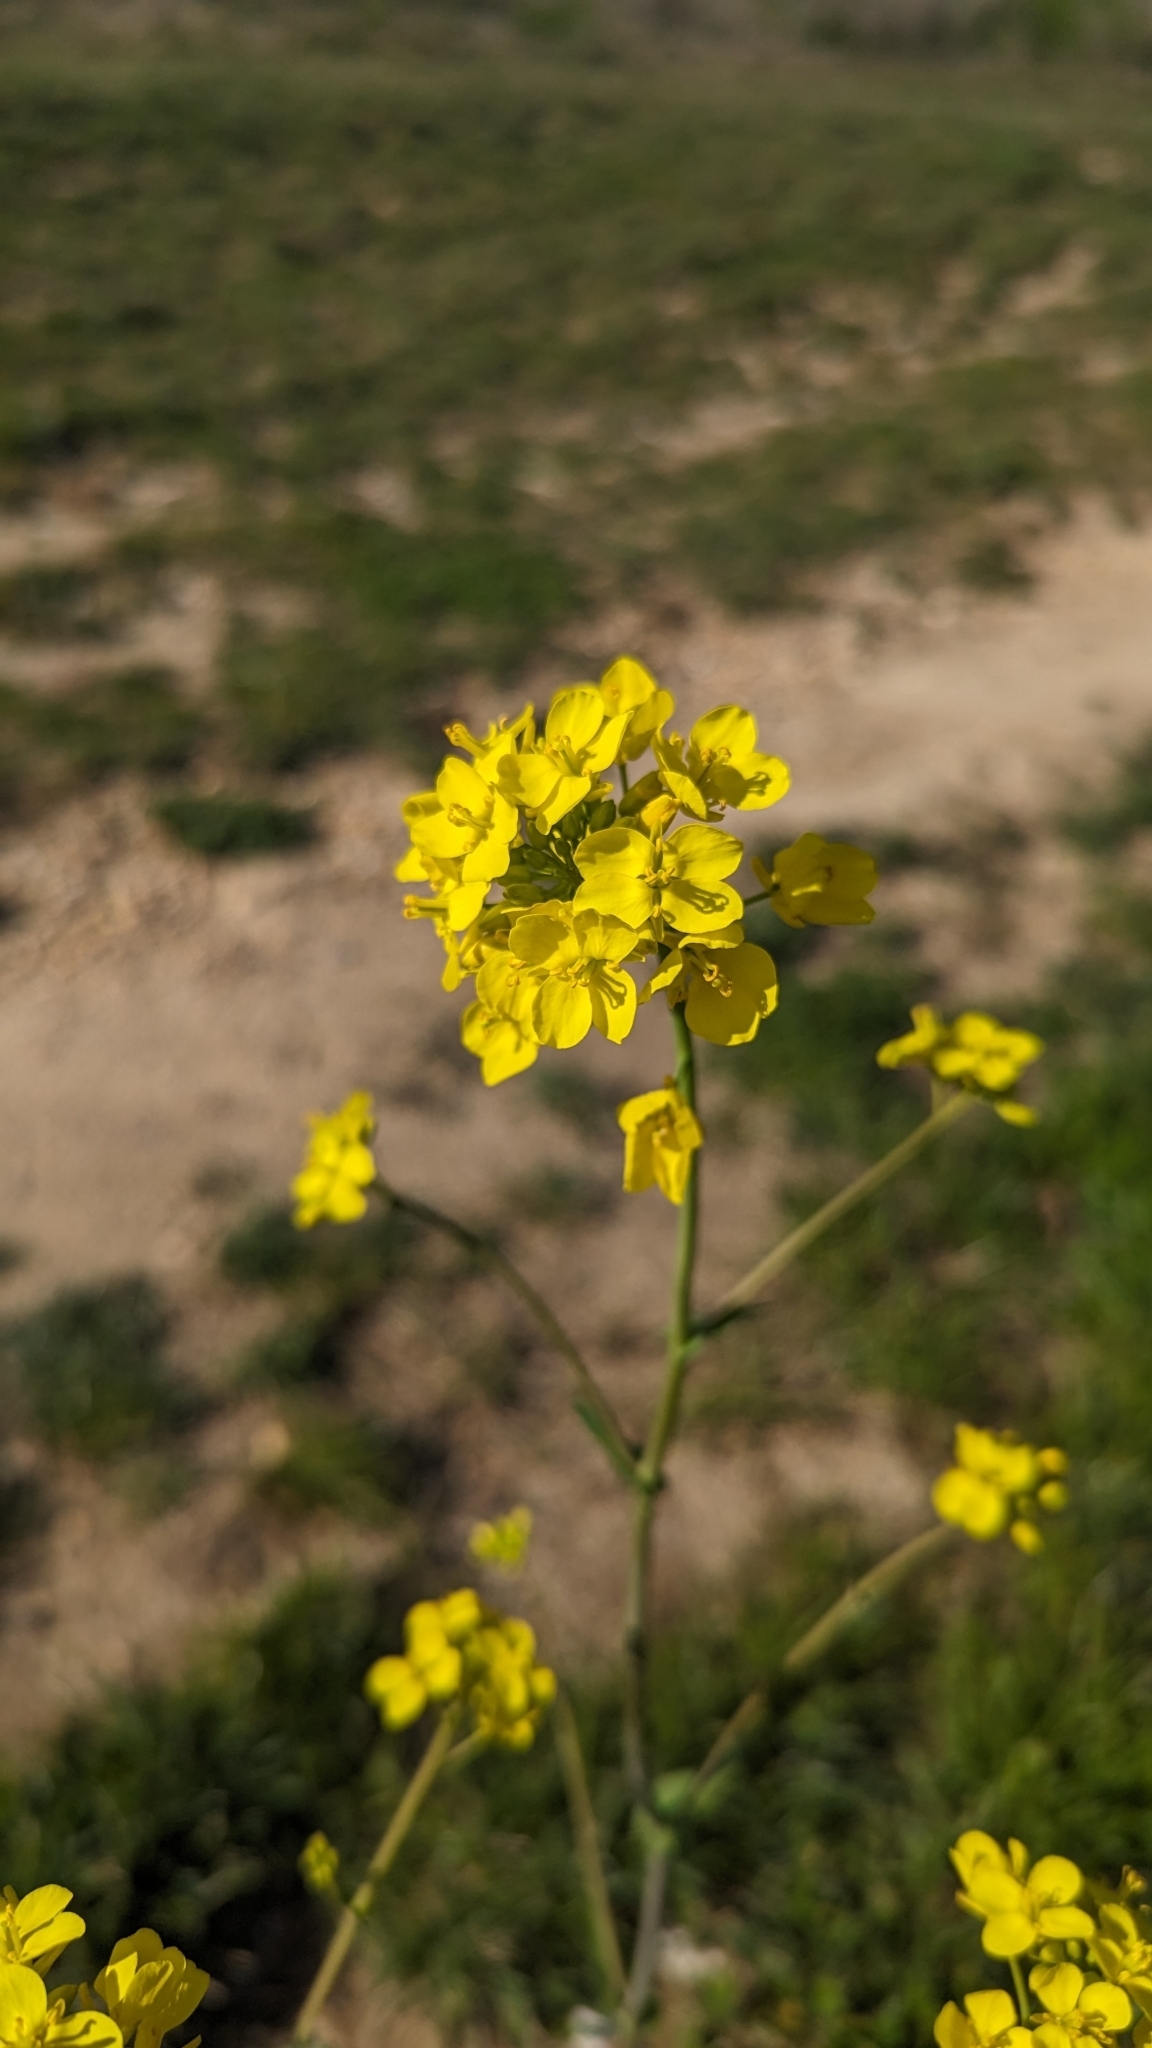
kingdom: Plantae
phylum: Tracheophyta
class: Magnoliopsida
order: Brassicales
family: Brassicaceae
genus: Brassica
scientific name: Brassica rapa
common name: Field mustard
